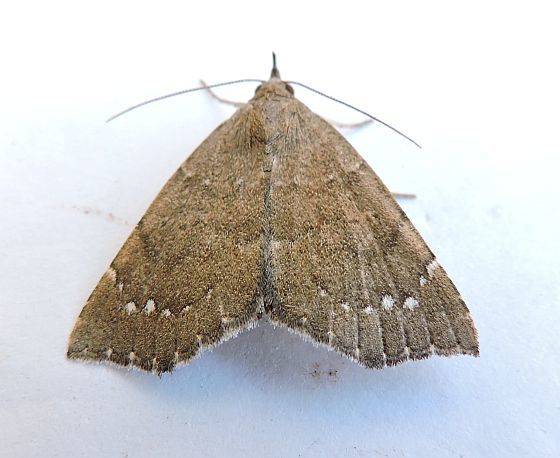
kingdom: Animalia
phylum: Arthropoda
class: Insecta
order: Lepidoptera
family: Erebidae
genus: Focillidia
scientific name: Focillidia texana
